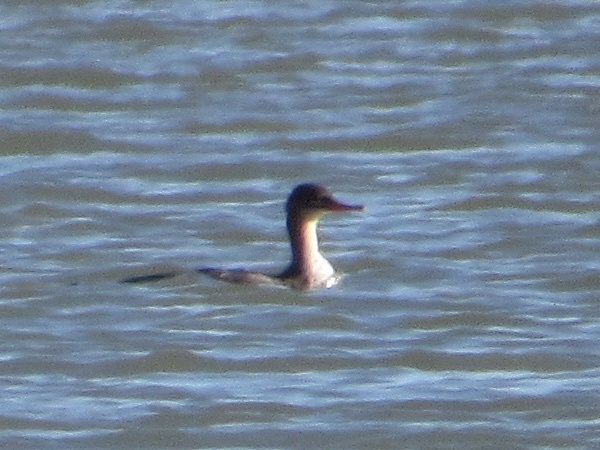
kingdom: Animalia
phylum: Chordata
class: Aves
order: Anseriformes
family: Anatidae
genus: Mergus
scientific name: Mergus serrator
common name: Red-breasted merganser
